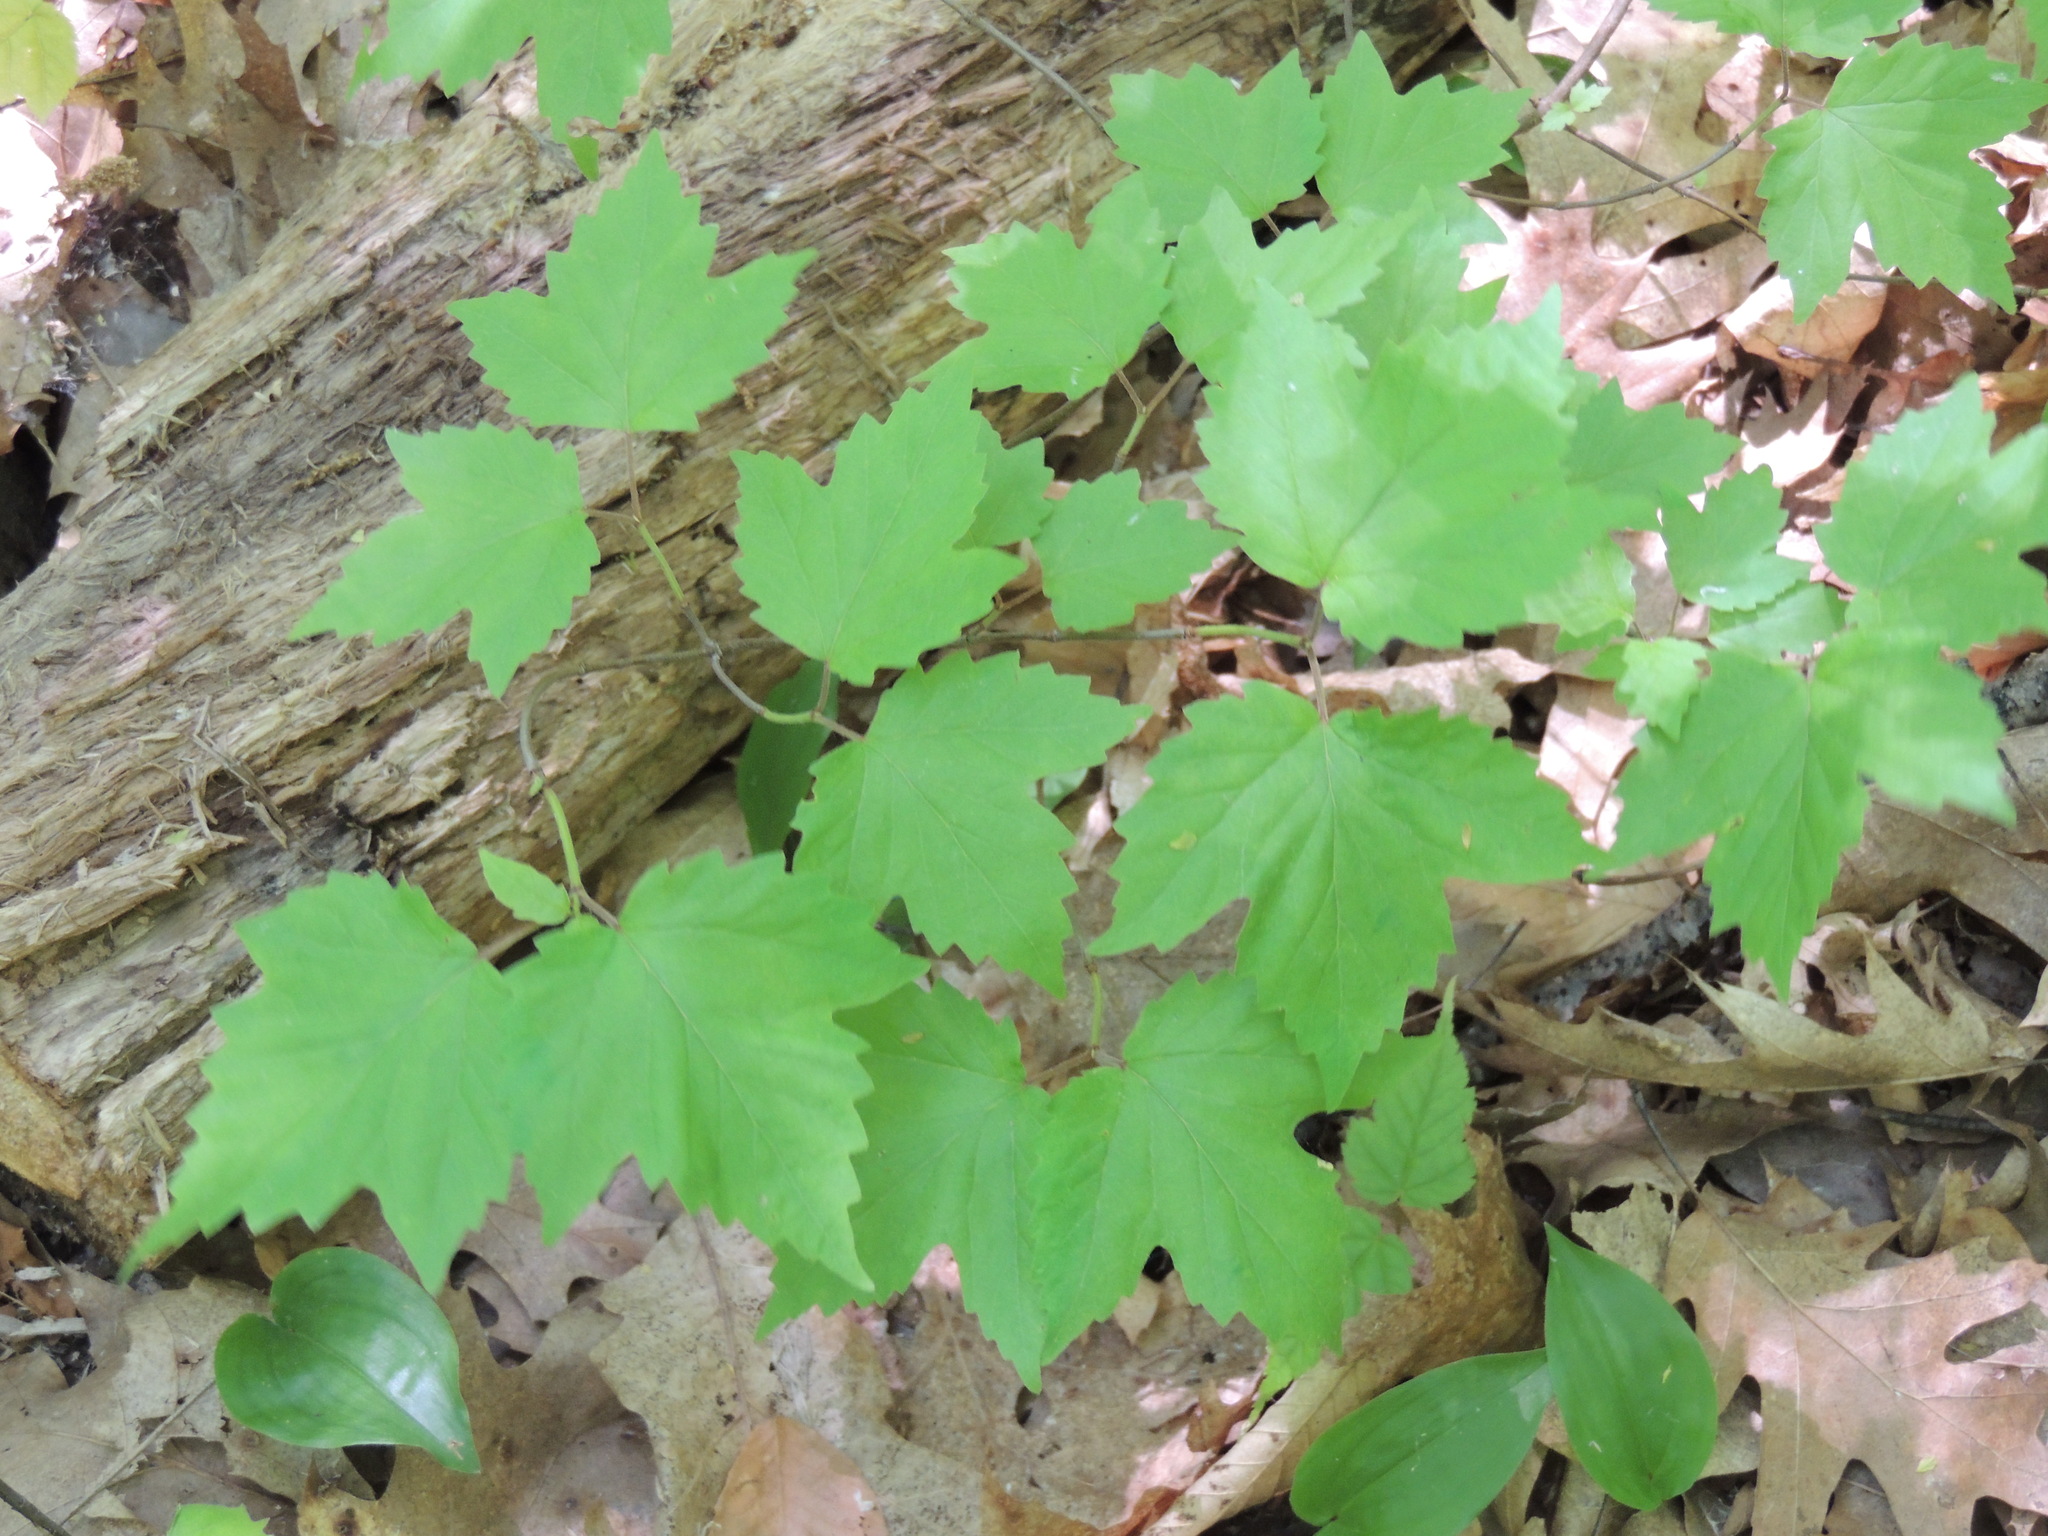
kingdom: Plantae
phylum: Tracheophyta
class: Magnoliopsida
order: Dipsacales
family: Viburnaceae
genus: Viburnum
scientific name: Viburnum acerifolium
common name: Dockmackie
